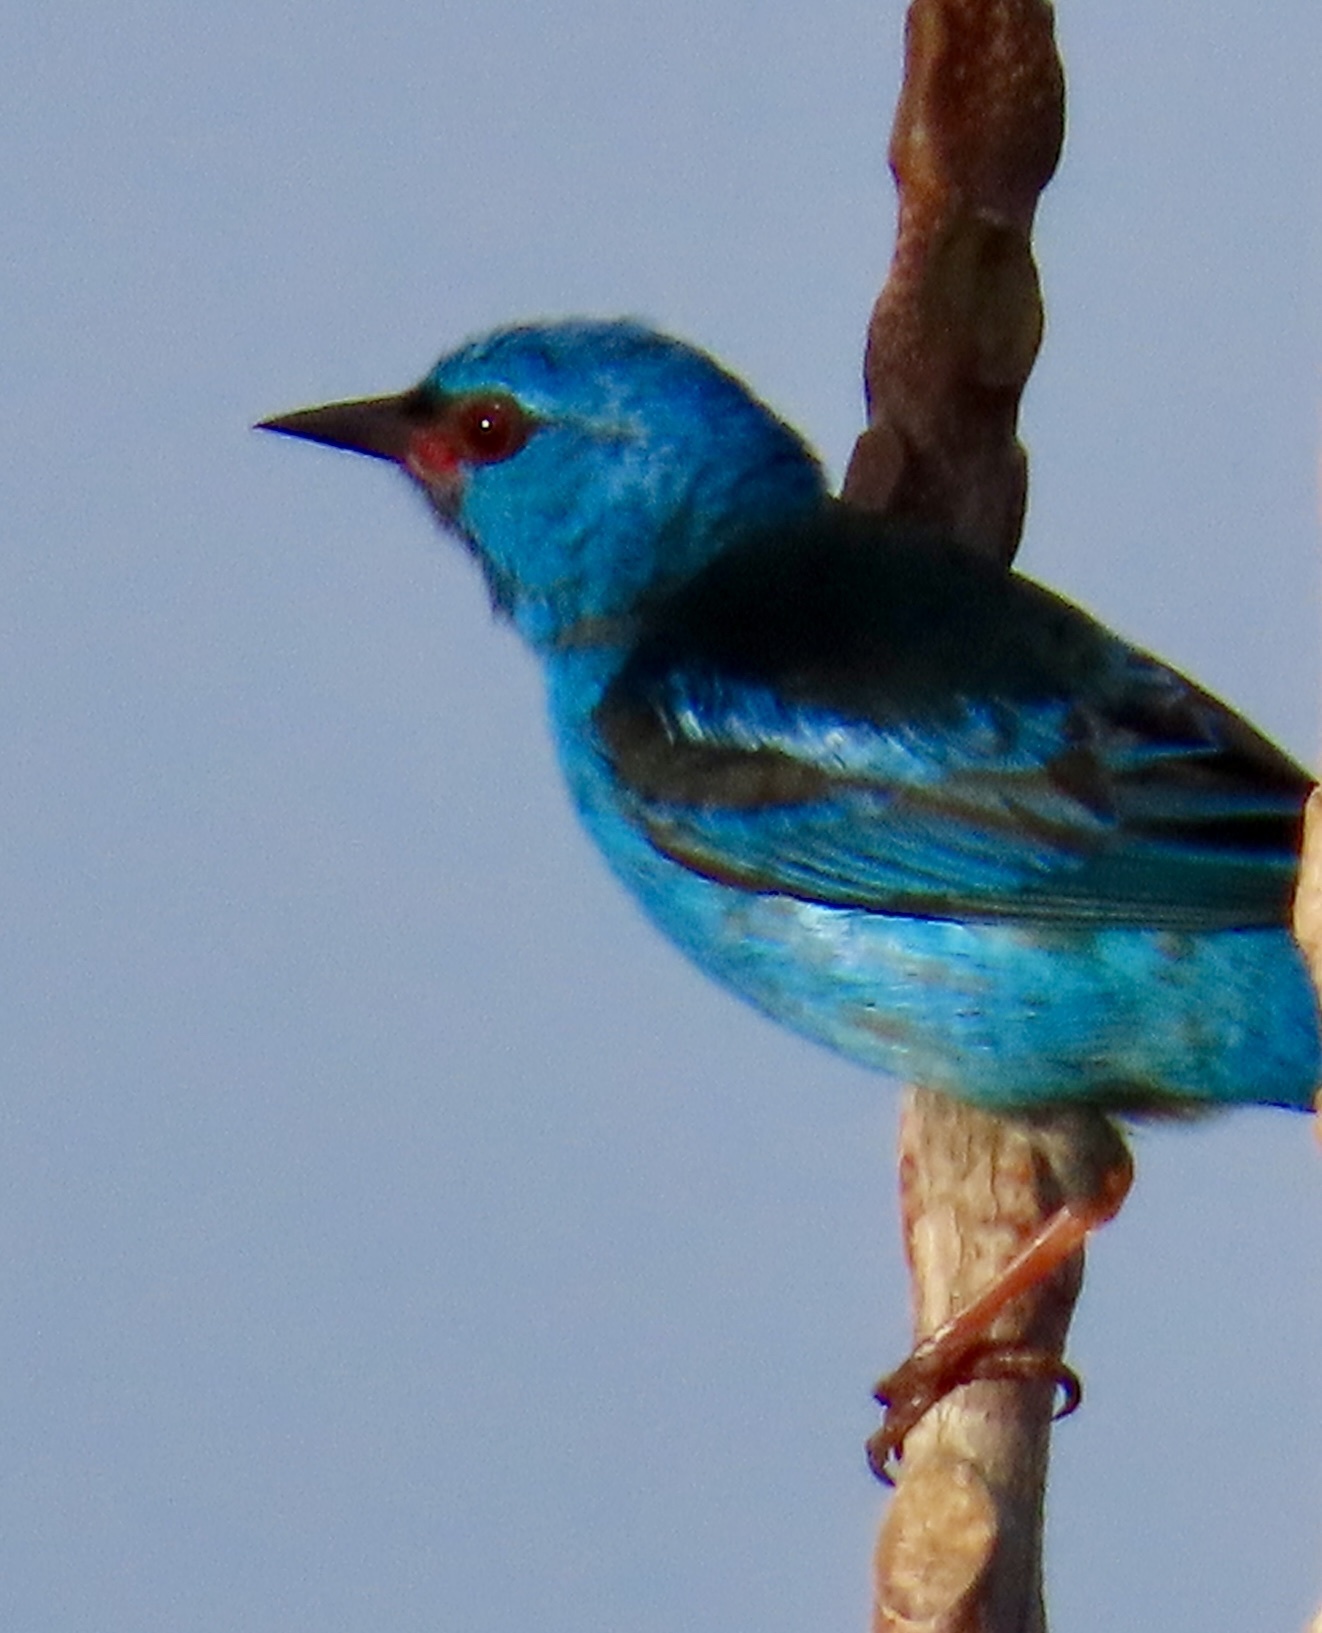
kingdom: Animalia
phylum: Chordata
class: Aves
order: Passeriformes
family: Thraupidae
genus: Dacnis
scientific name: Dacnis cayana
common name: Blue dacnis
